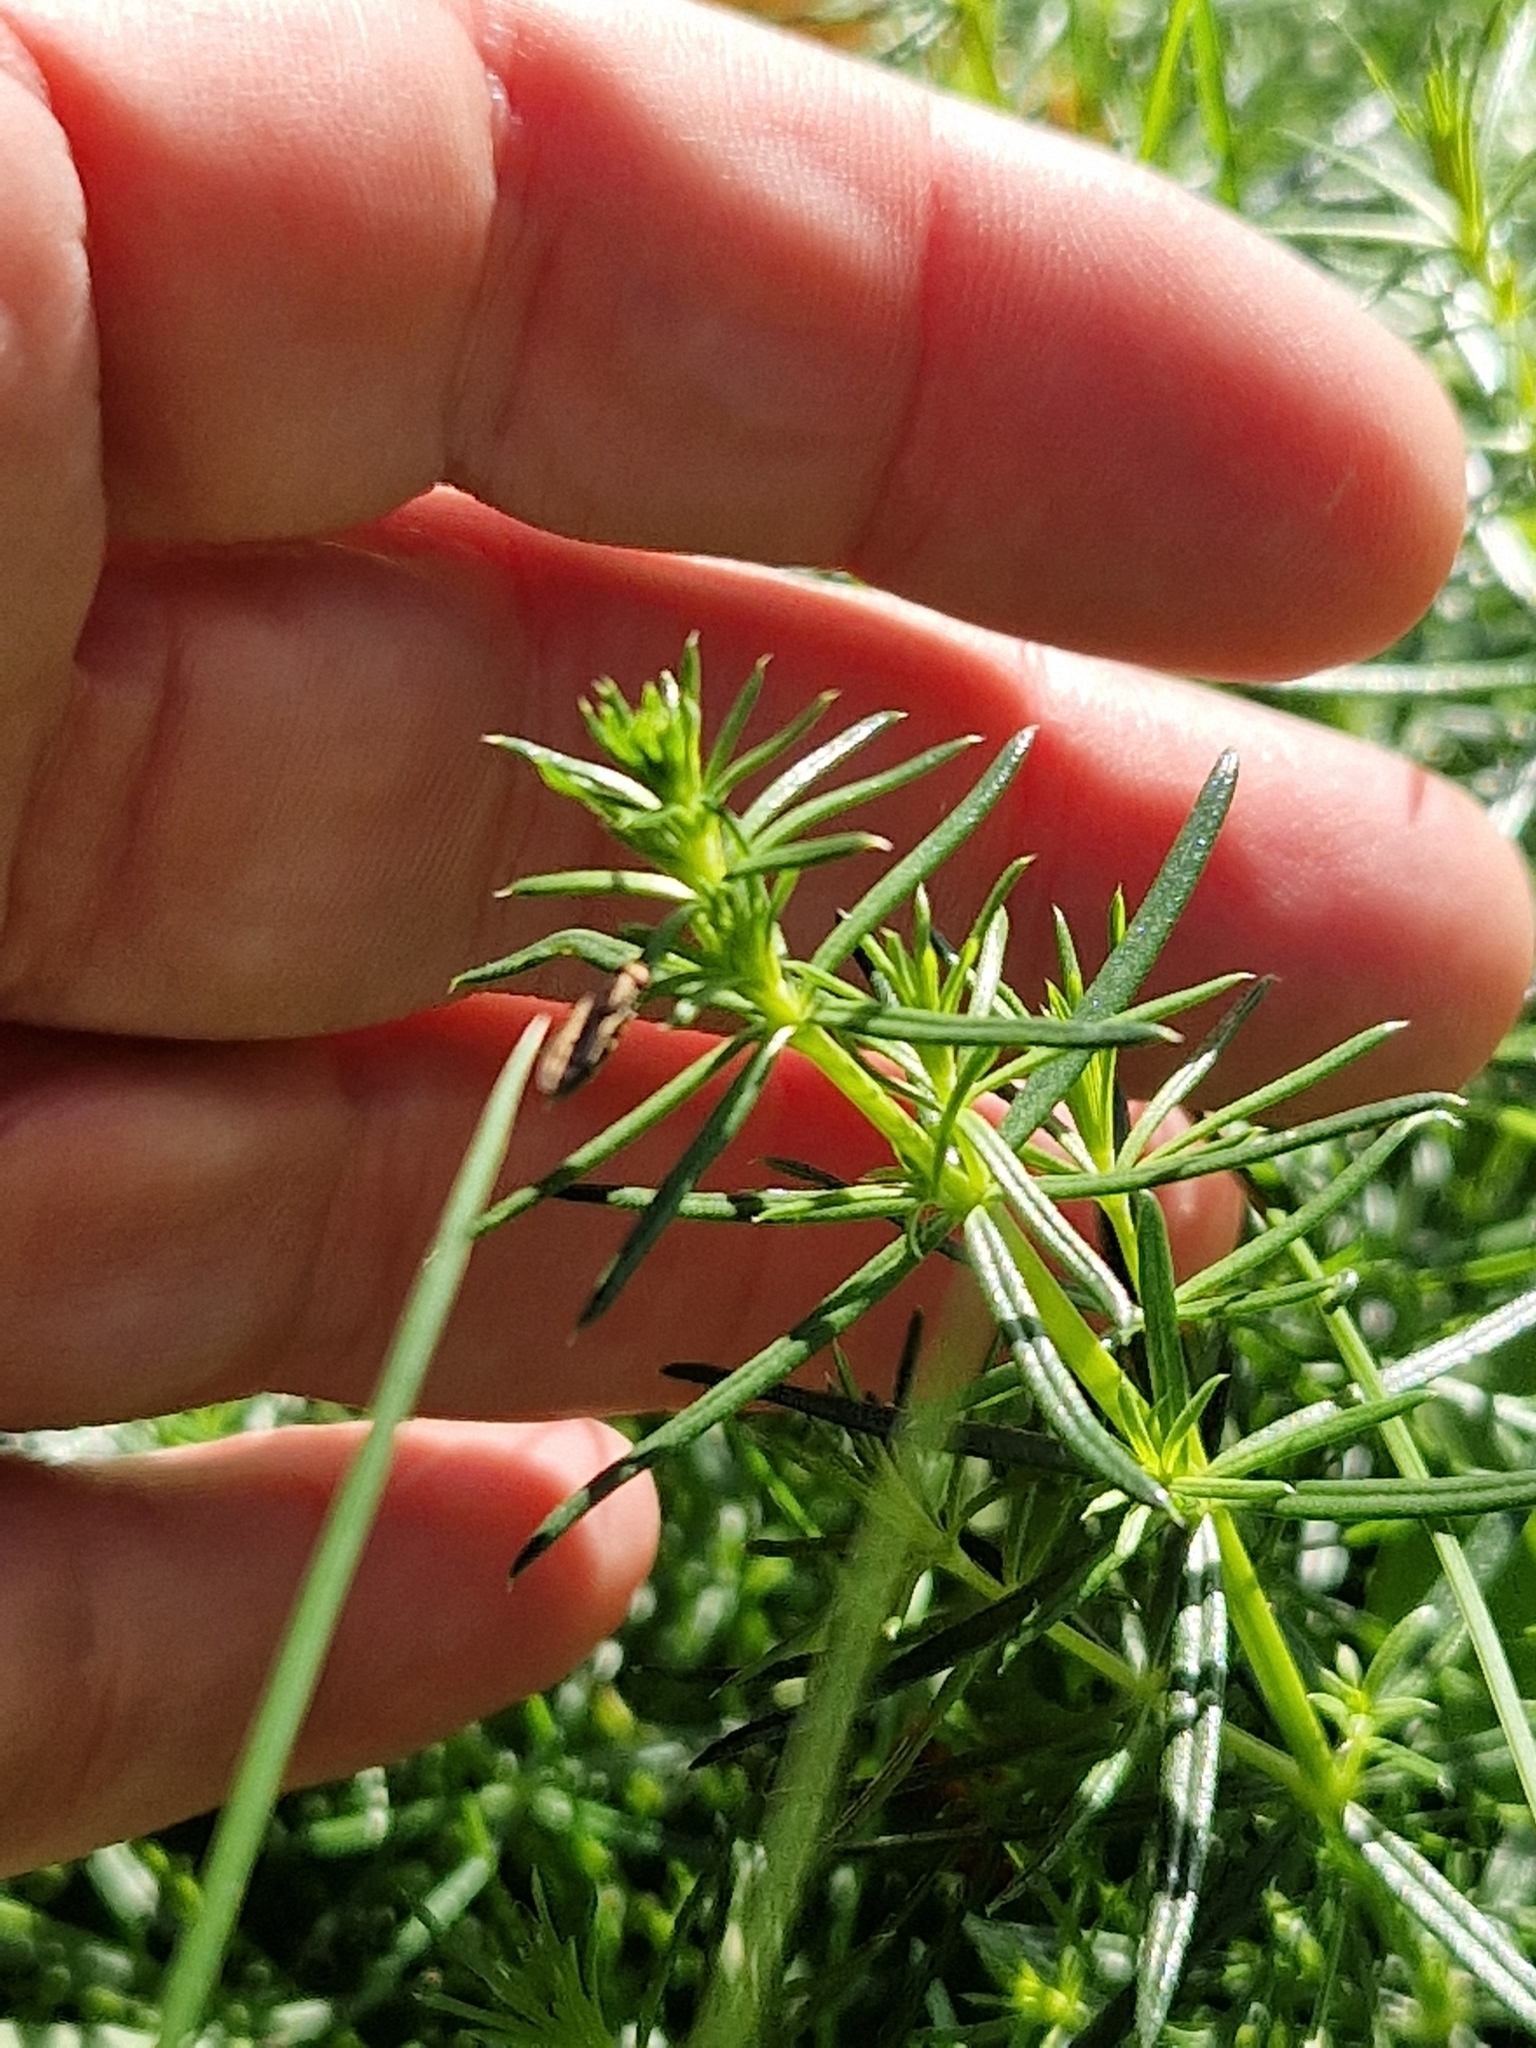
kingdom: Plantae
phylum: Tracheophyta
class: Magnoliopsida
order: Gentianales
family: Rubiaceae
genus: Galium
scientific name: Galium verum
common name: Lady's bedstraw
